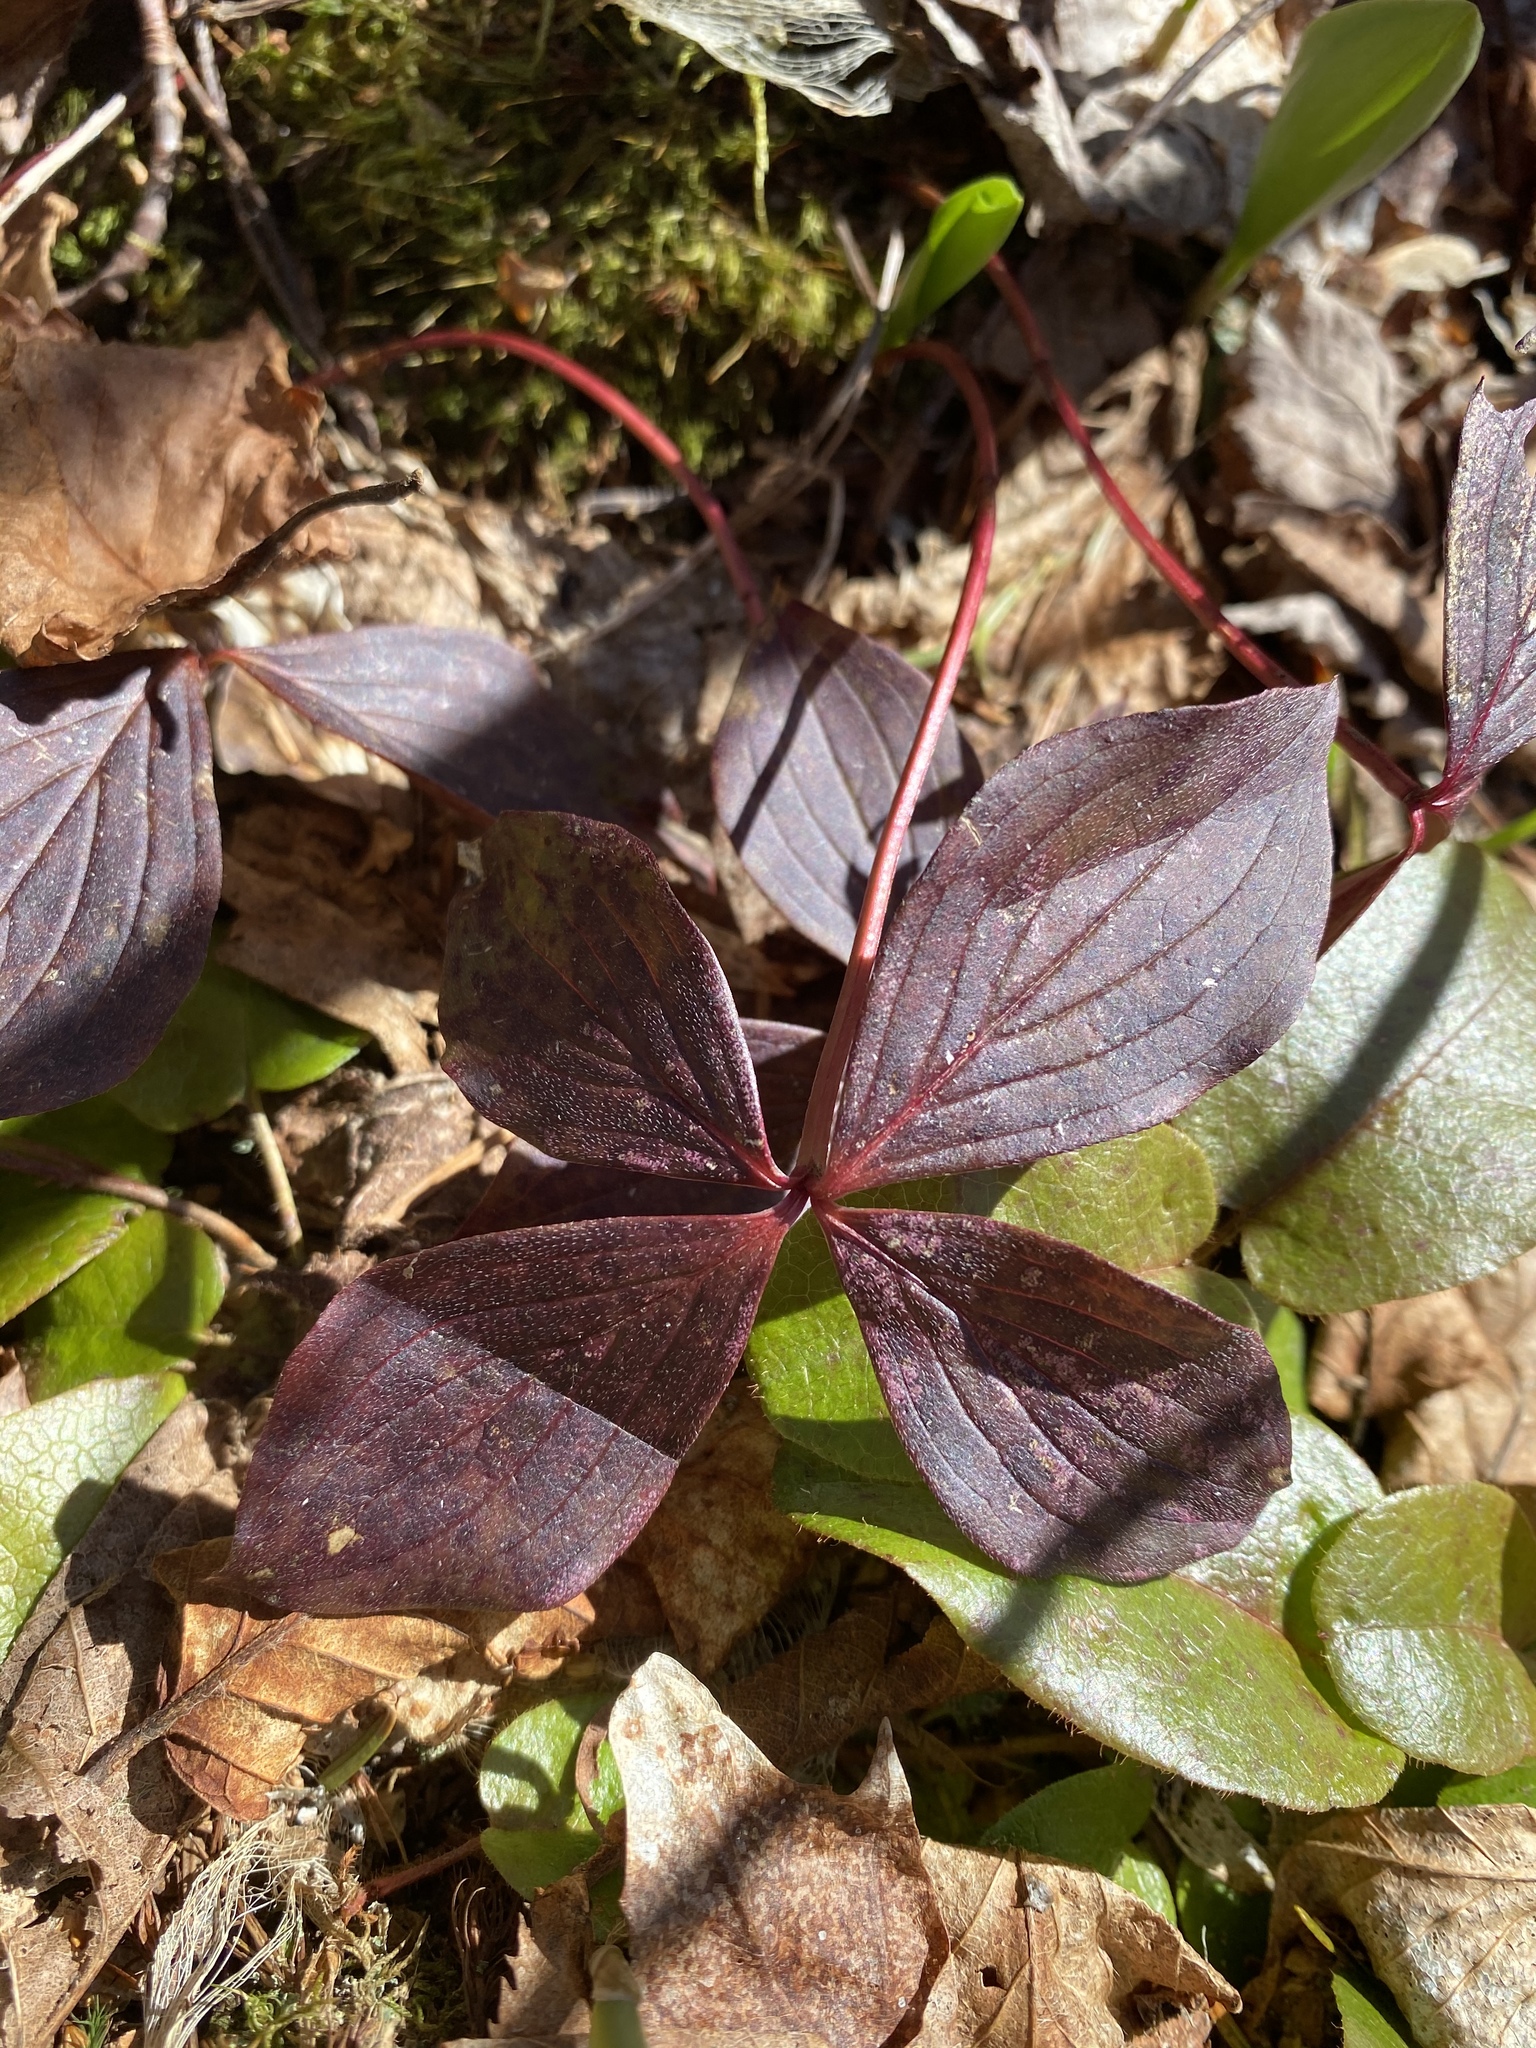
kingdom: Plantae
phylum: Tracheophyta
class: Magnoliopsida
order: Cornales
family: Cornaceae
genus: Cornus
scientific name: Cornus canadensis
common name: Creeping dogwood
